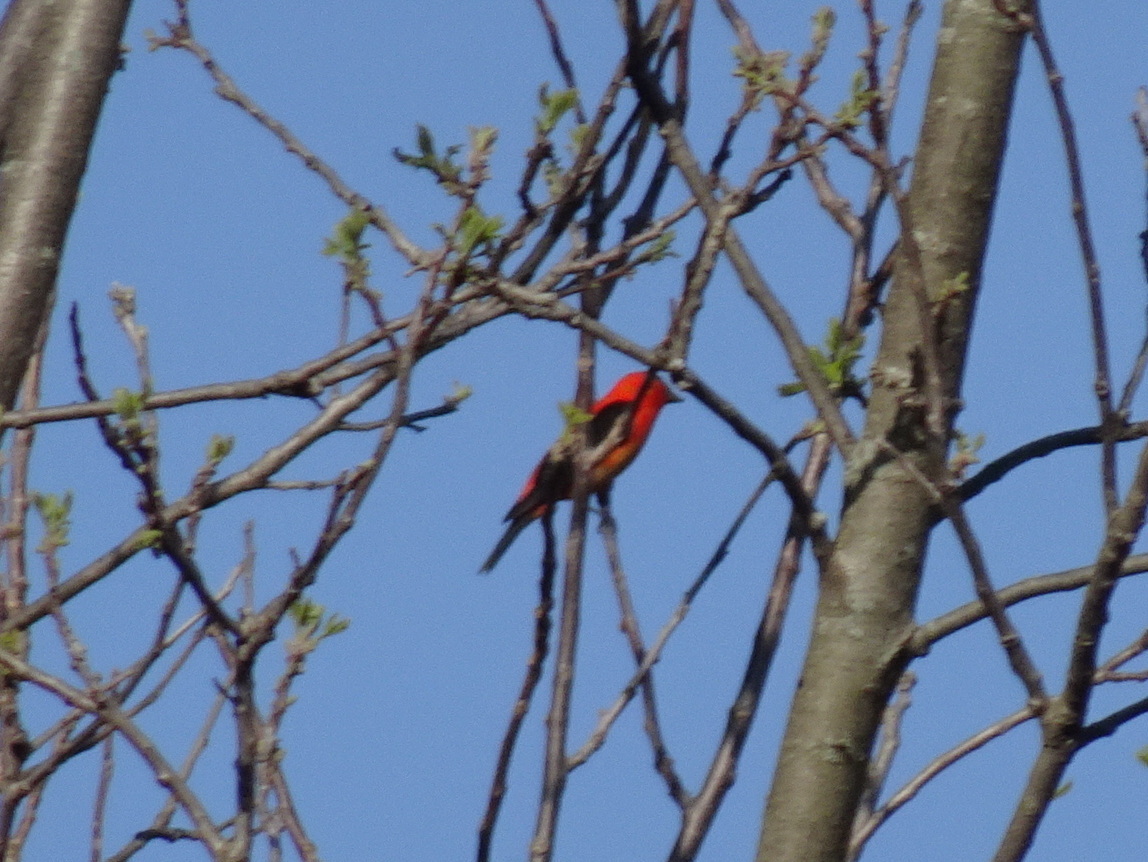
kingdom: Animalia
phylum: Chordata
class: Aves
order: Passeriformes
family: Cardinalidae
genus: Piranga
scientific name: Piranga olivacea
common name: Scarlet tanager
